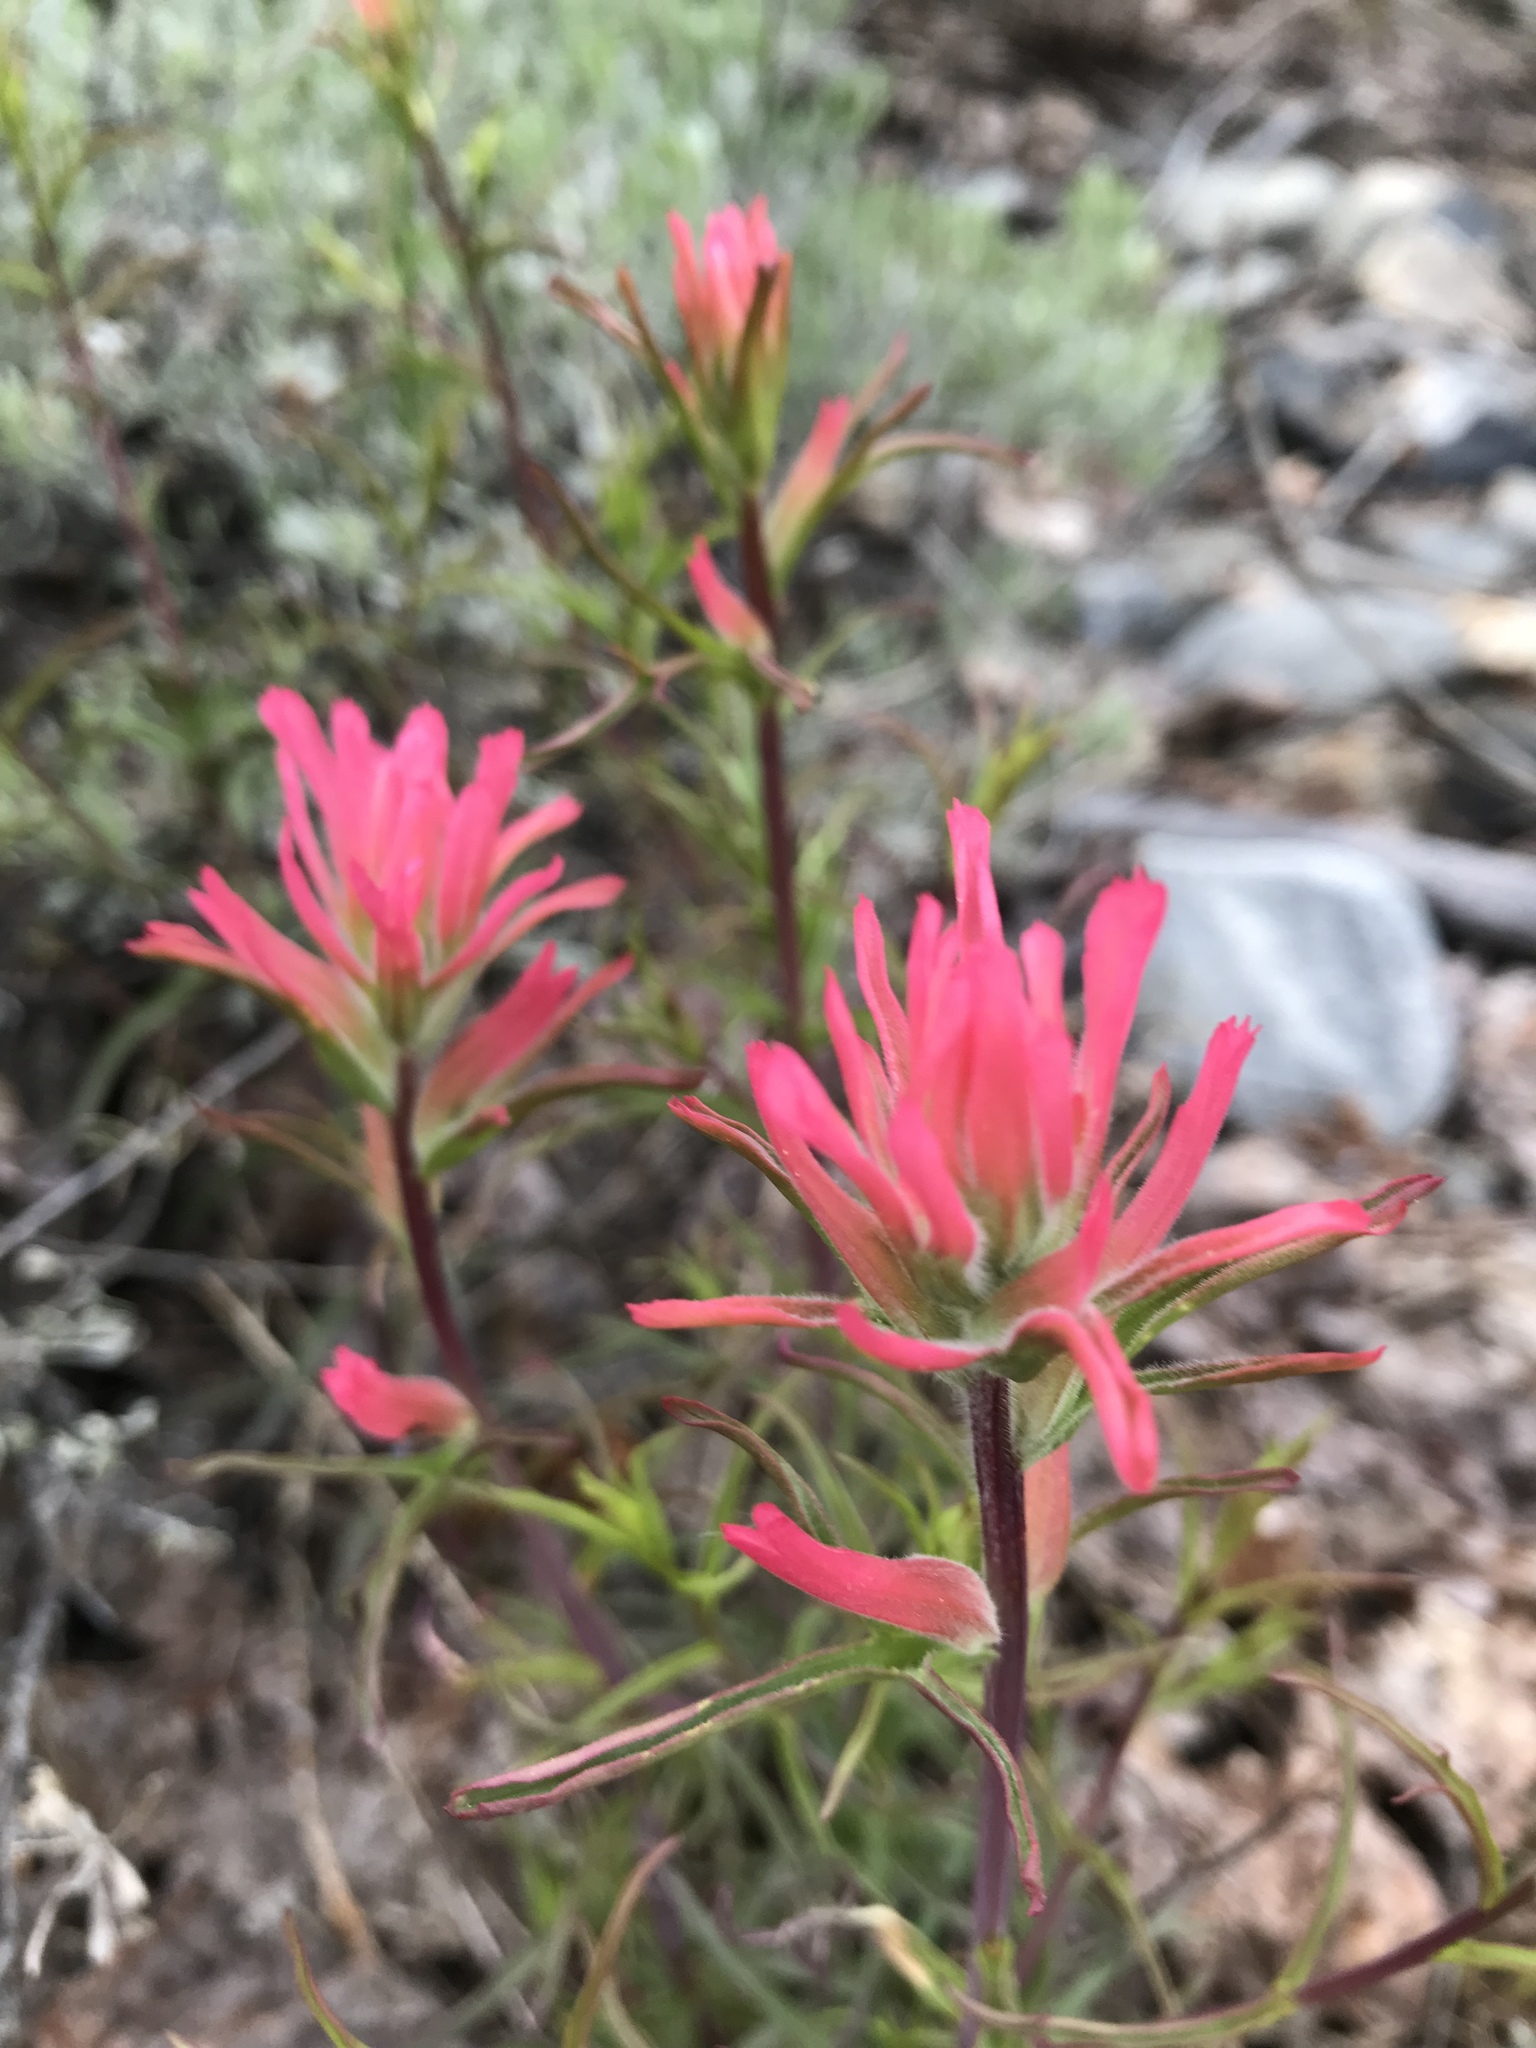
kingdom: Plantae
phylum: Tracheophyta
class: Magnoliopsida
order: Lamiales
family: Orobanchaceae
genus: Castilleja
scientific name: Castilleja linariifolia
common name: Wyoming paintbrush
